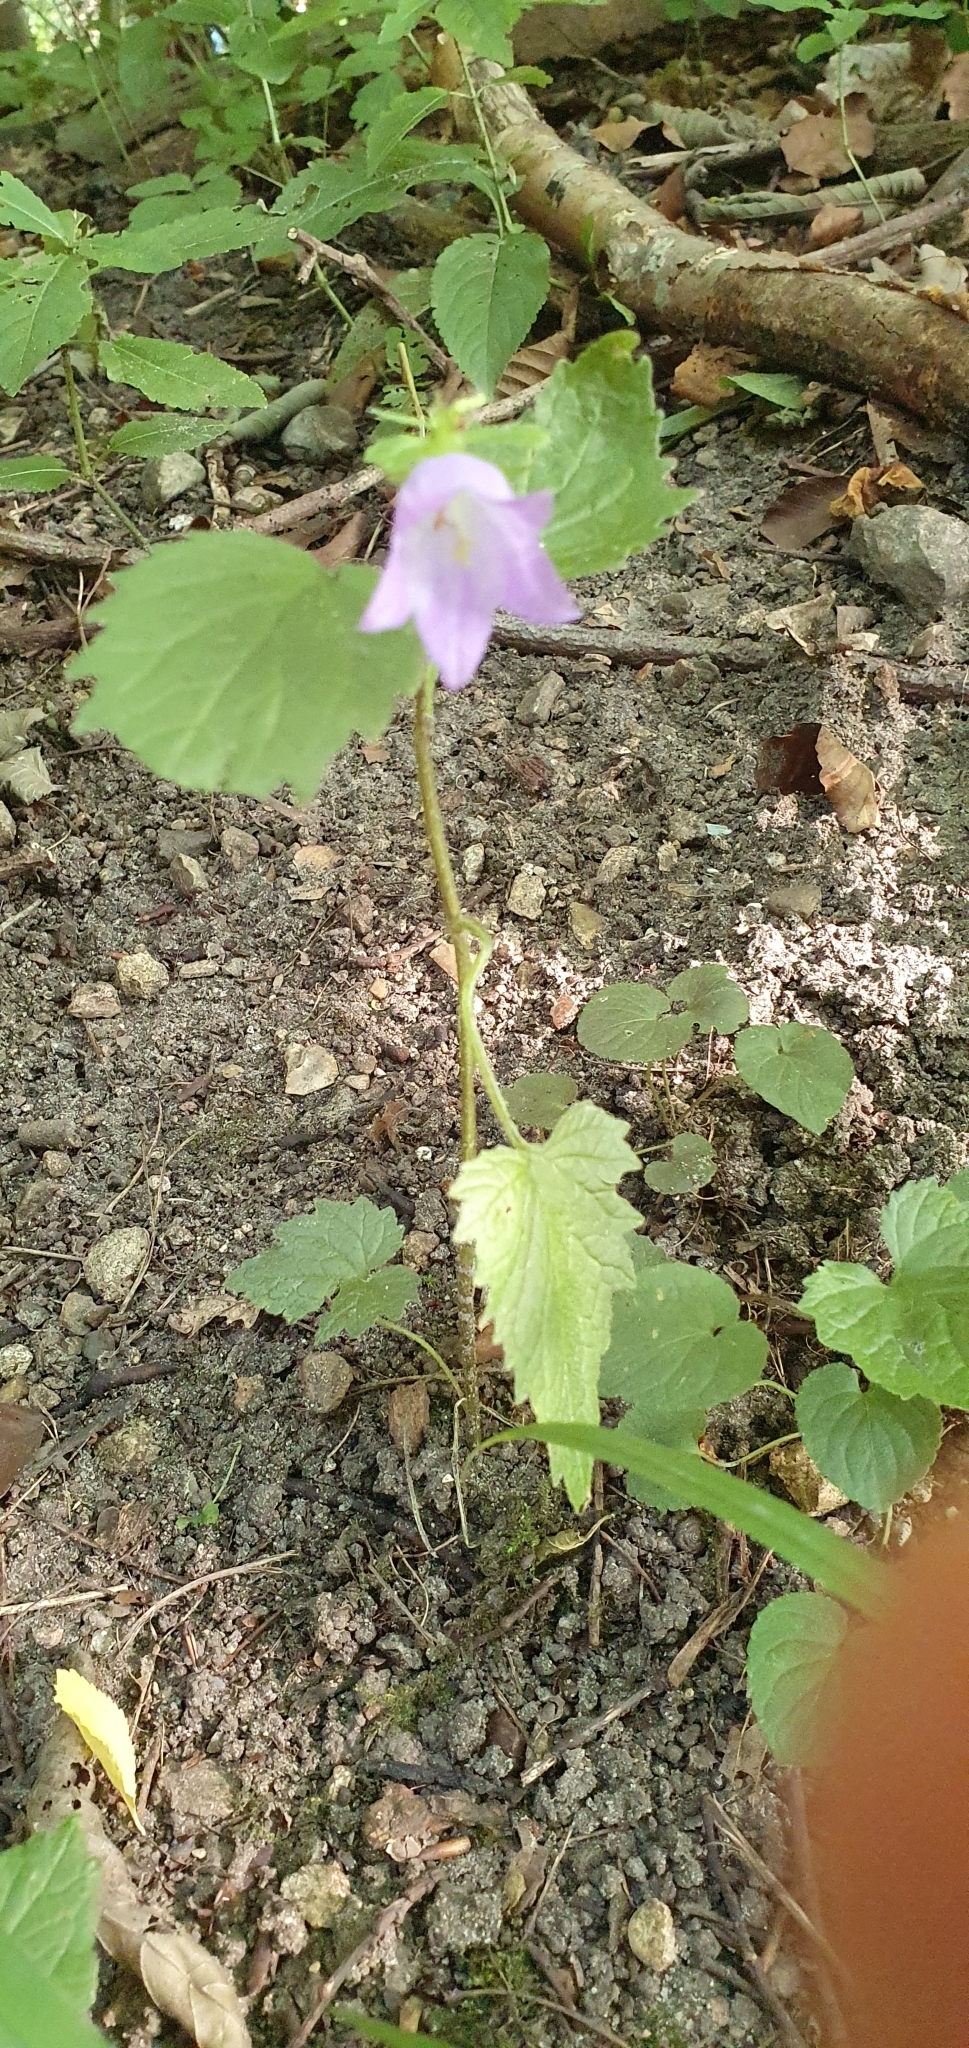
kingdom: Plantae
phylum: Tracheophyta
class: Magnoliopsida
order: Asterales
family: Campanulaceae
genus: Campanula
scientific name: Campanula trachelium
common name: Nettle-leaved bellflower
